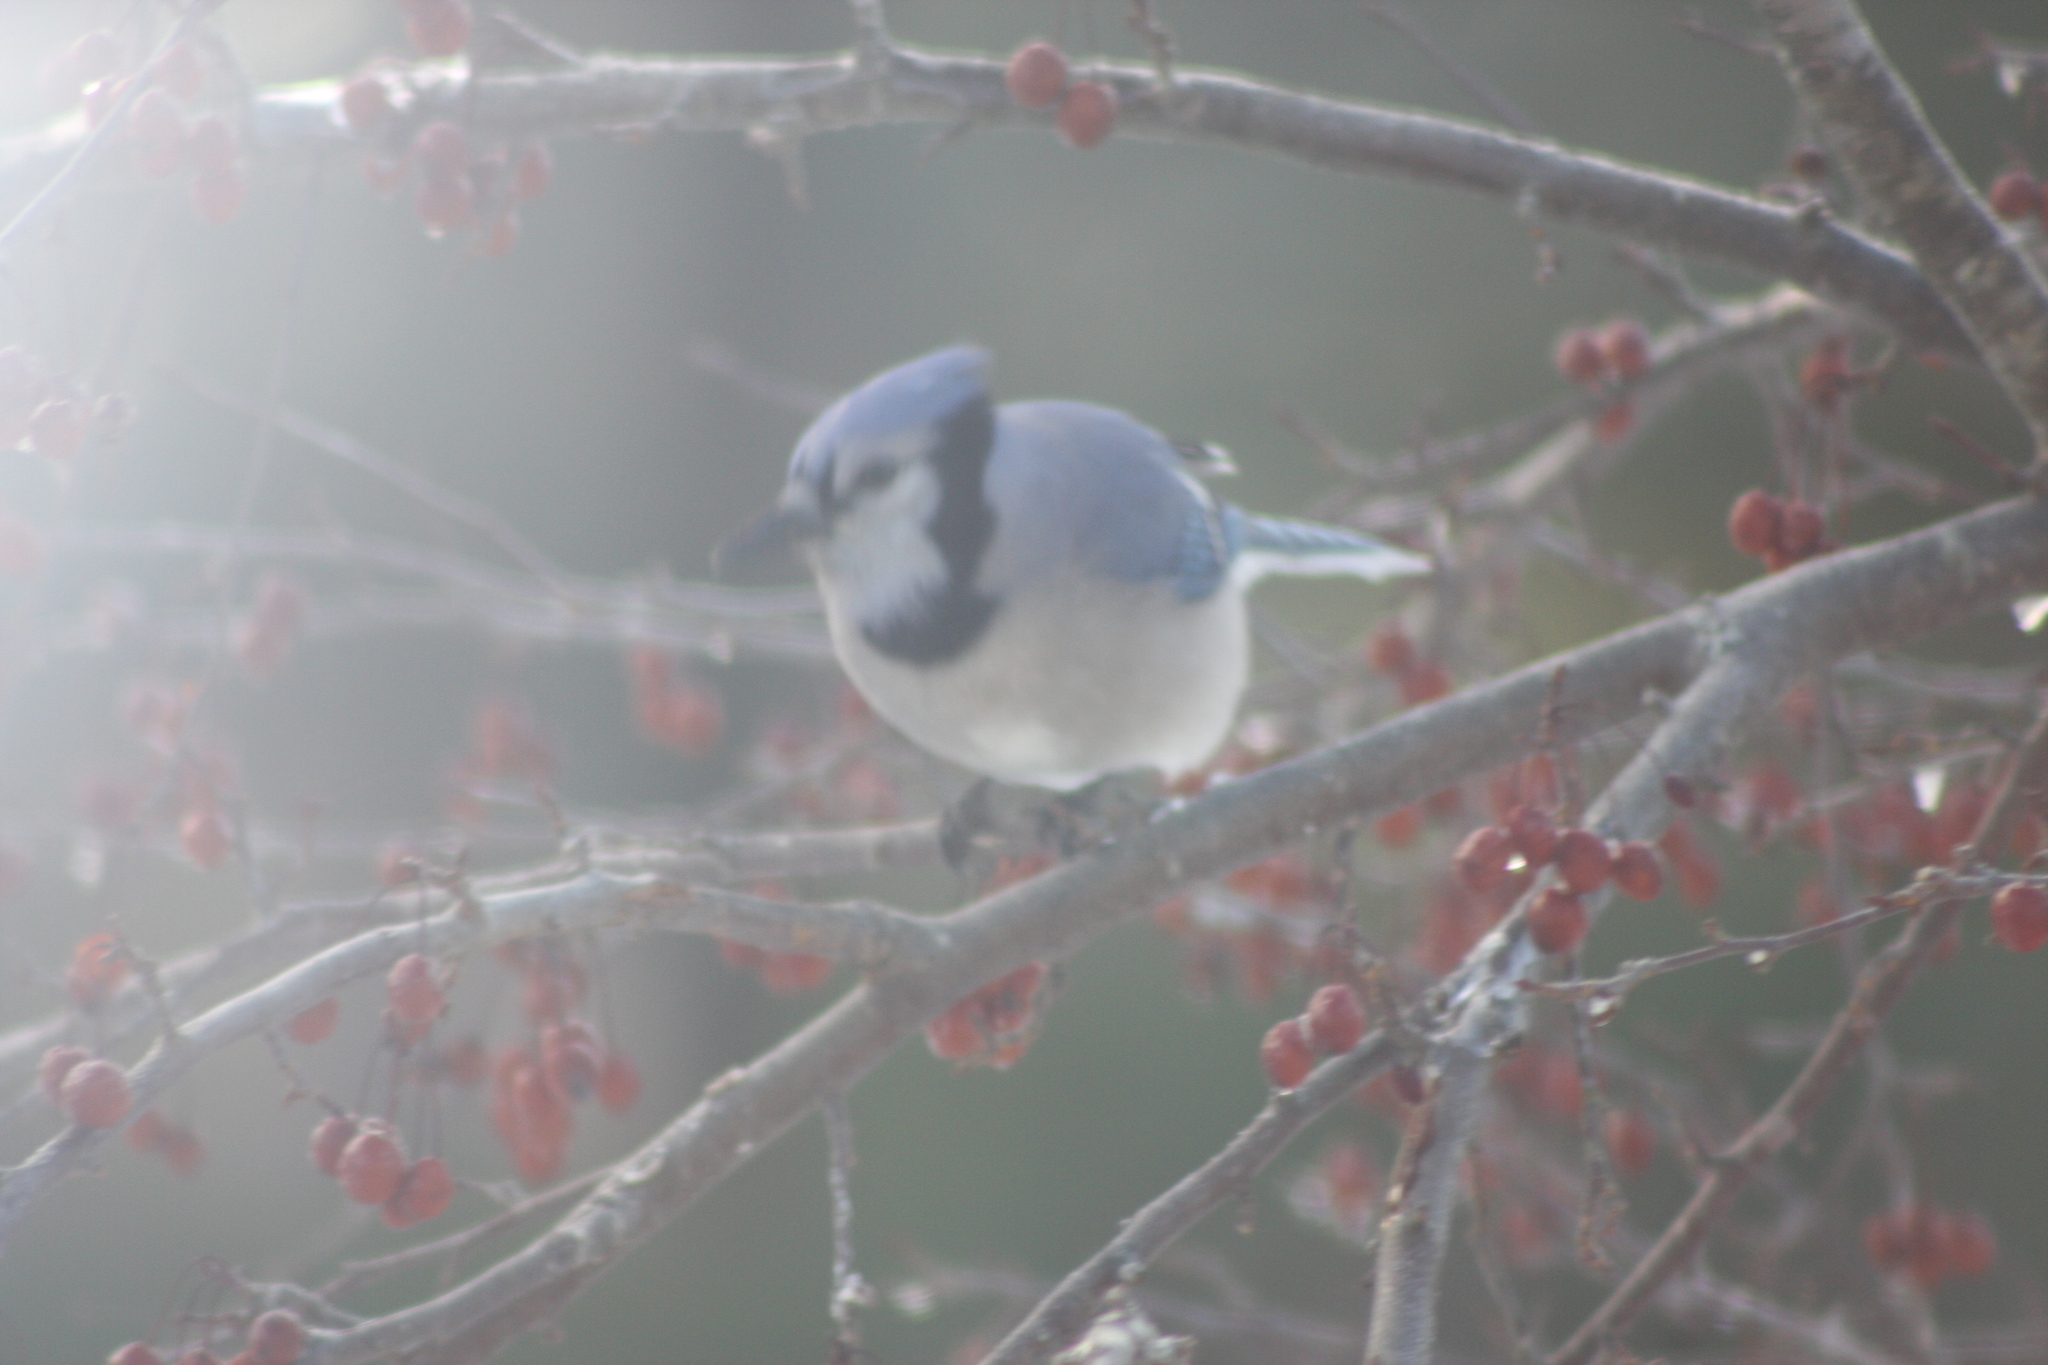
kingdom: Animalia
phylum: Chordata
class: Aves
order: Passeriformes
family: Corvidae
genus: Cyanocitta
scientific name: Cyanocitta cristata
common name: Blue jay
